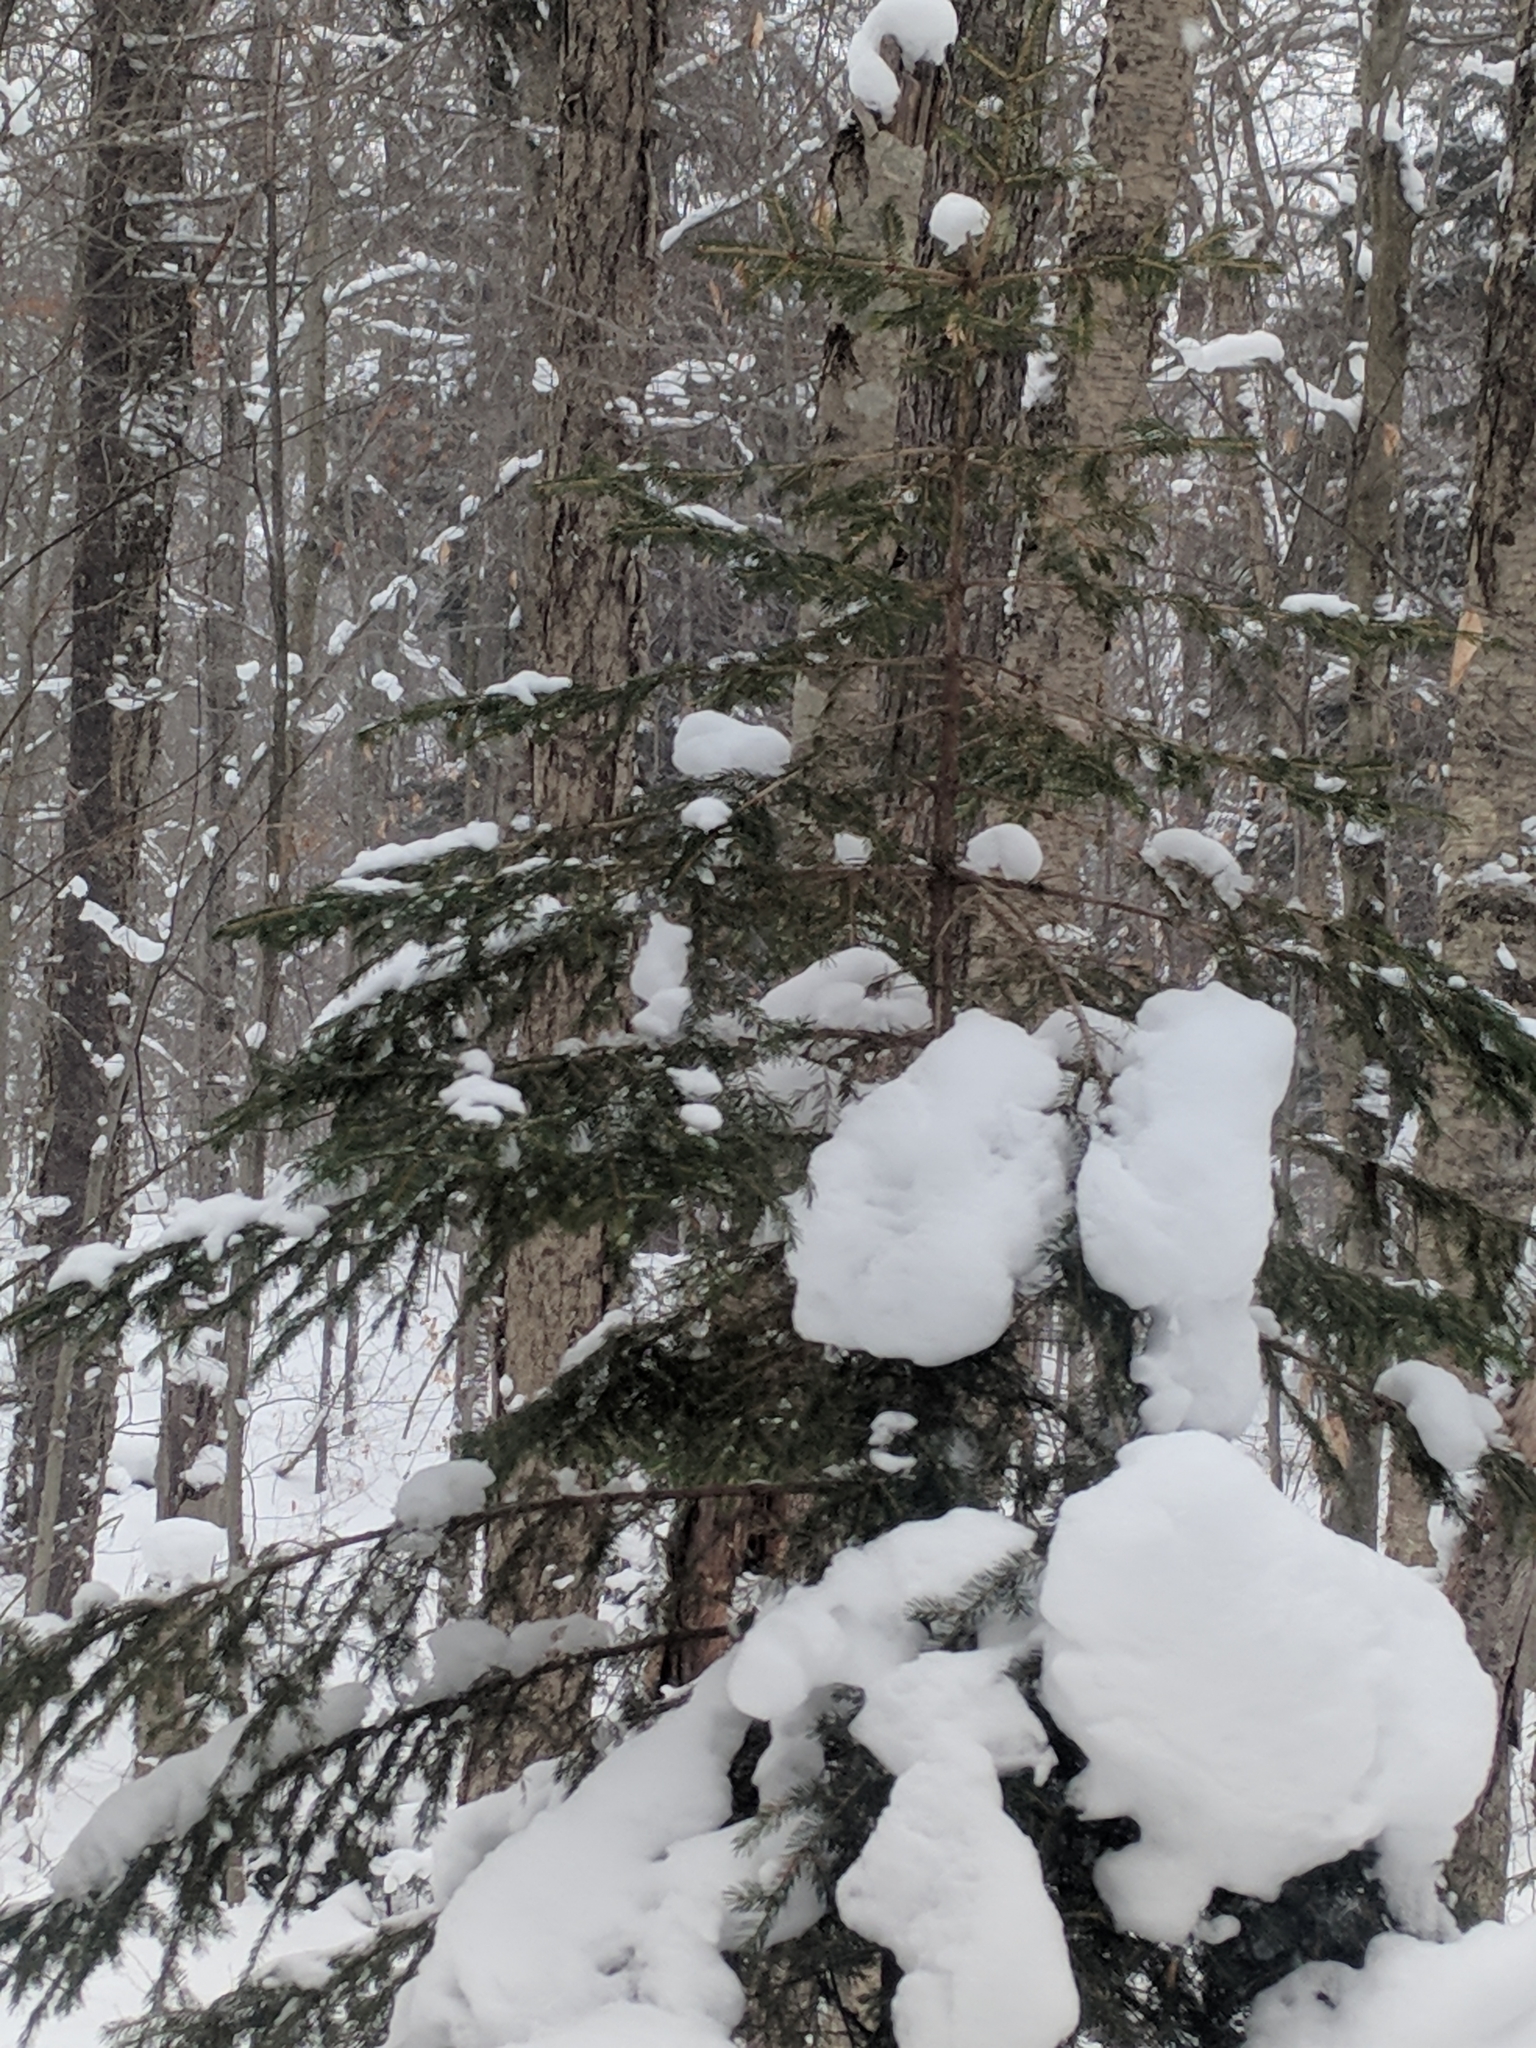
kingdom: Plantae
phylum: Tracheophyta
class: Pinopsida
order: Pinales
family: Pinaceae
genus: Picea
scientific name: Picea rubens
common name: Red spruce
